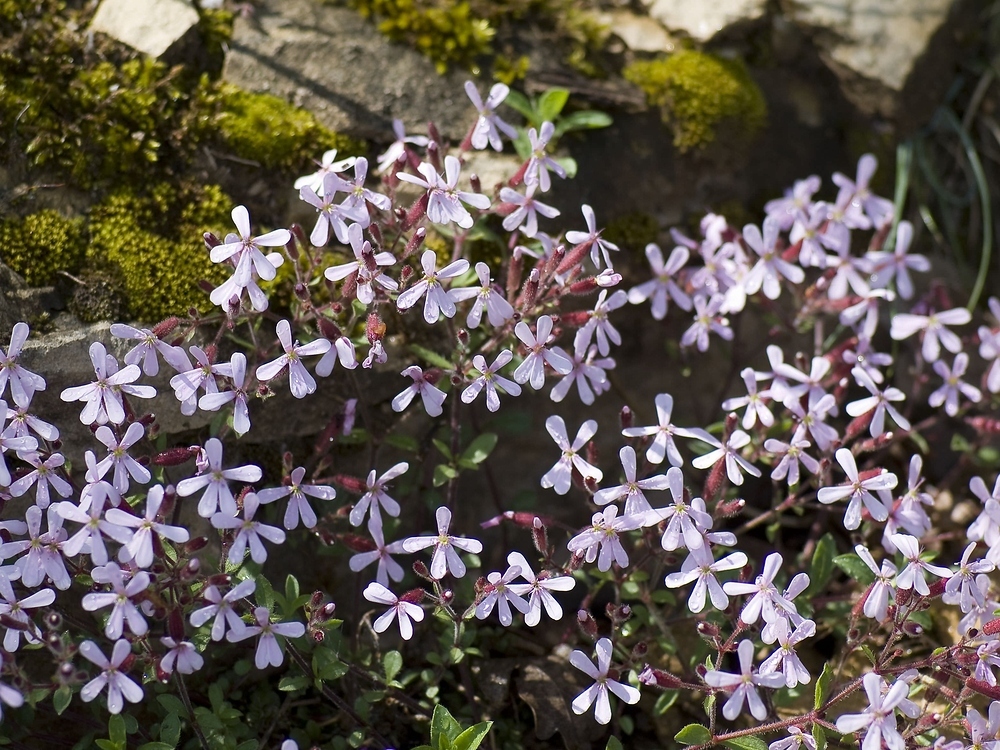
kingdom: Plantae
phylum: Tracheophyta
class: Magnoliopsida
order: Caryophyllales
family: Caryophyllaceae
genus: Saponaria
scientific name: Saponaria ocymoides
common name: Rock soapwort
